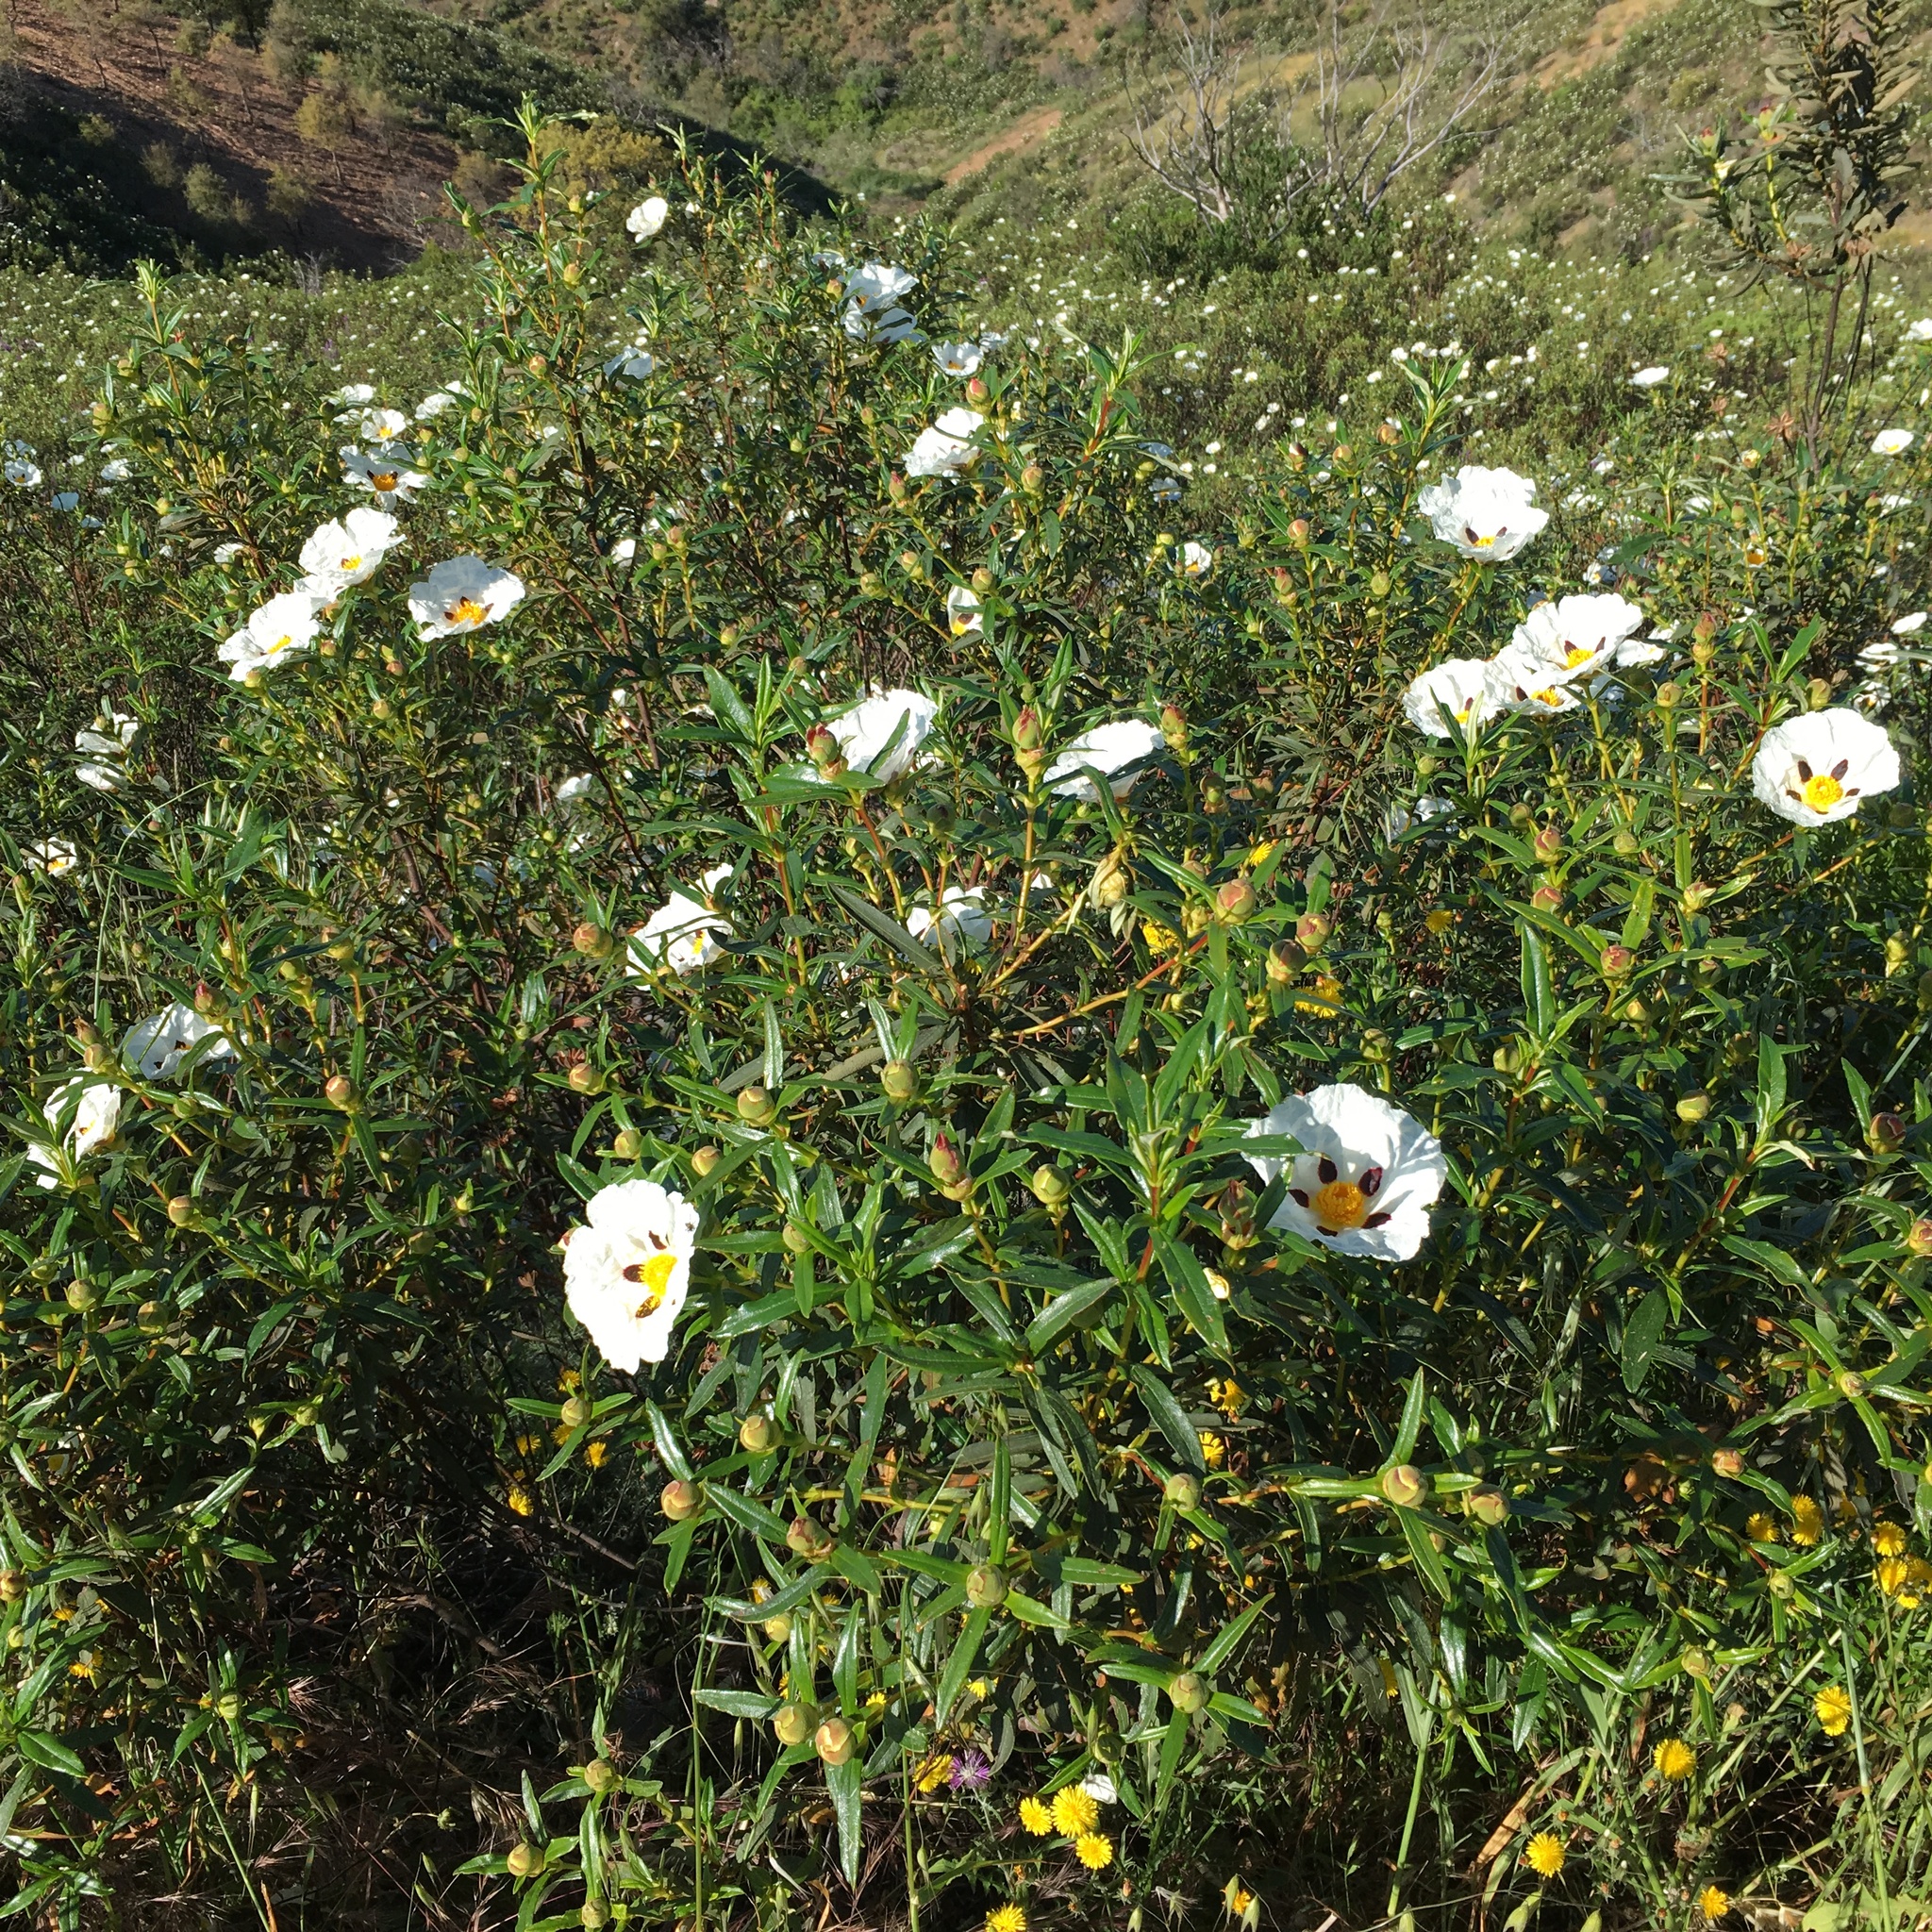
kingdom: Plantae
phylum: Tracheophyta
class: Magnoliopsida
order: Malvales
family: Cistaceae
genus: Cistus
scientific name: Cistus ladanifer
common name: Common gum cistus
